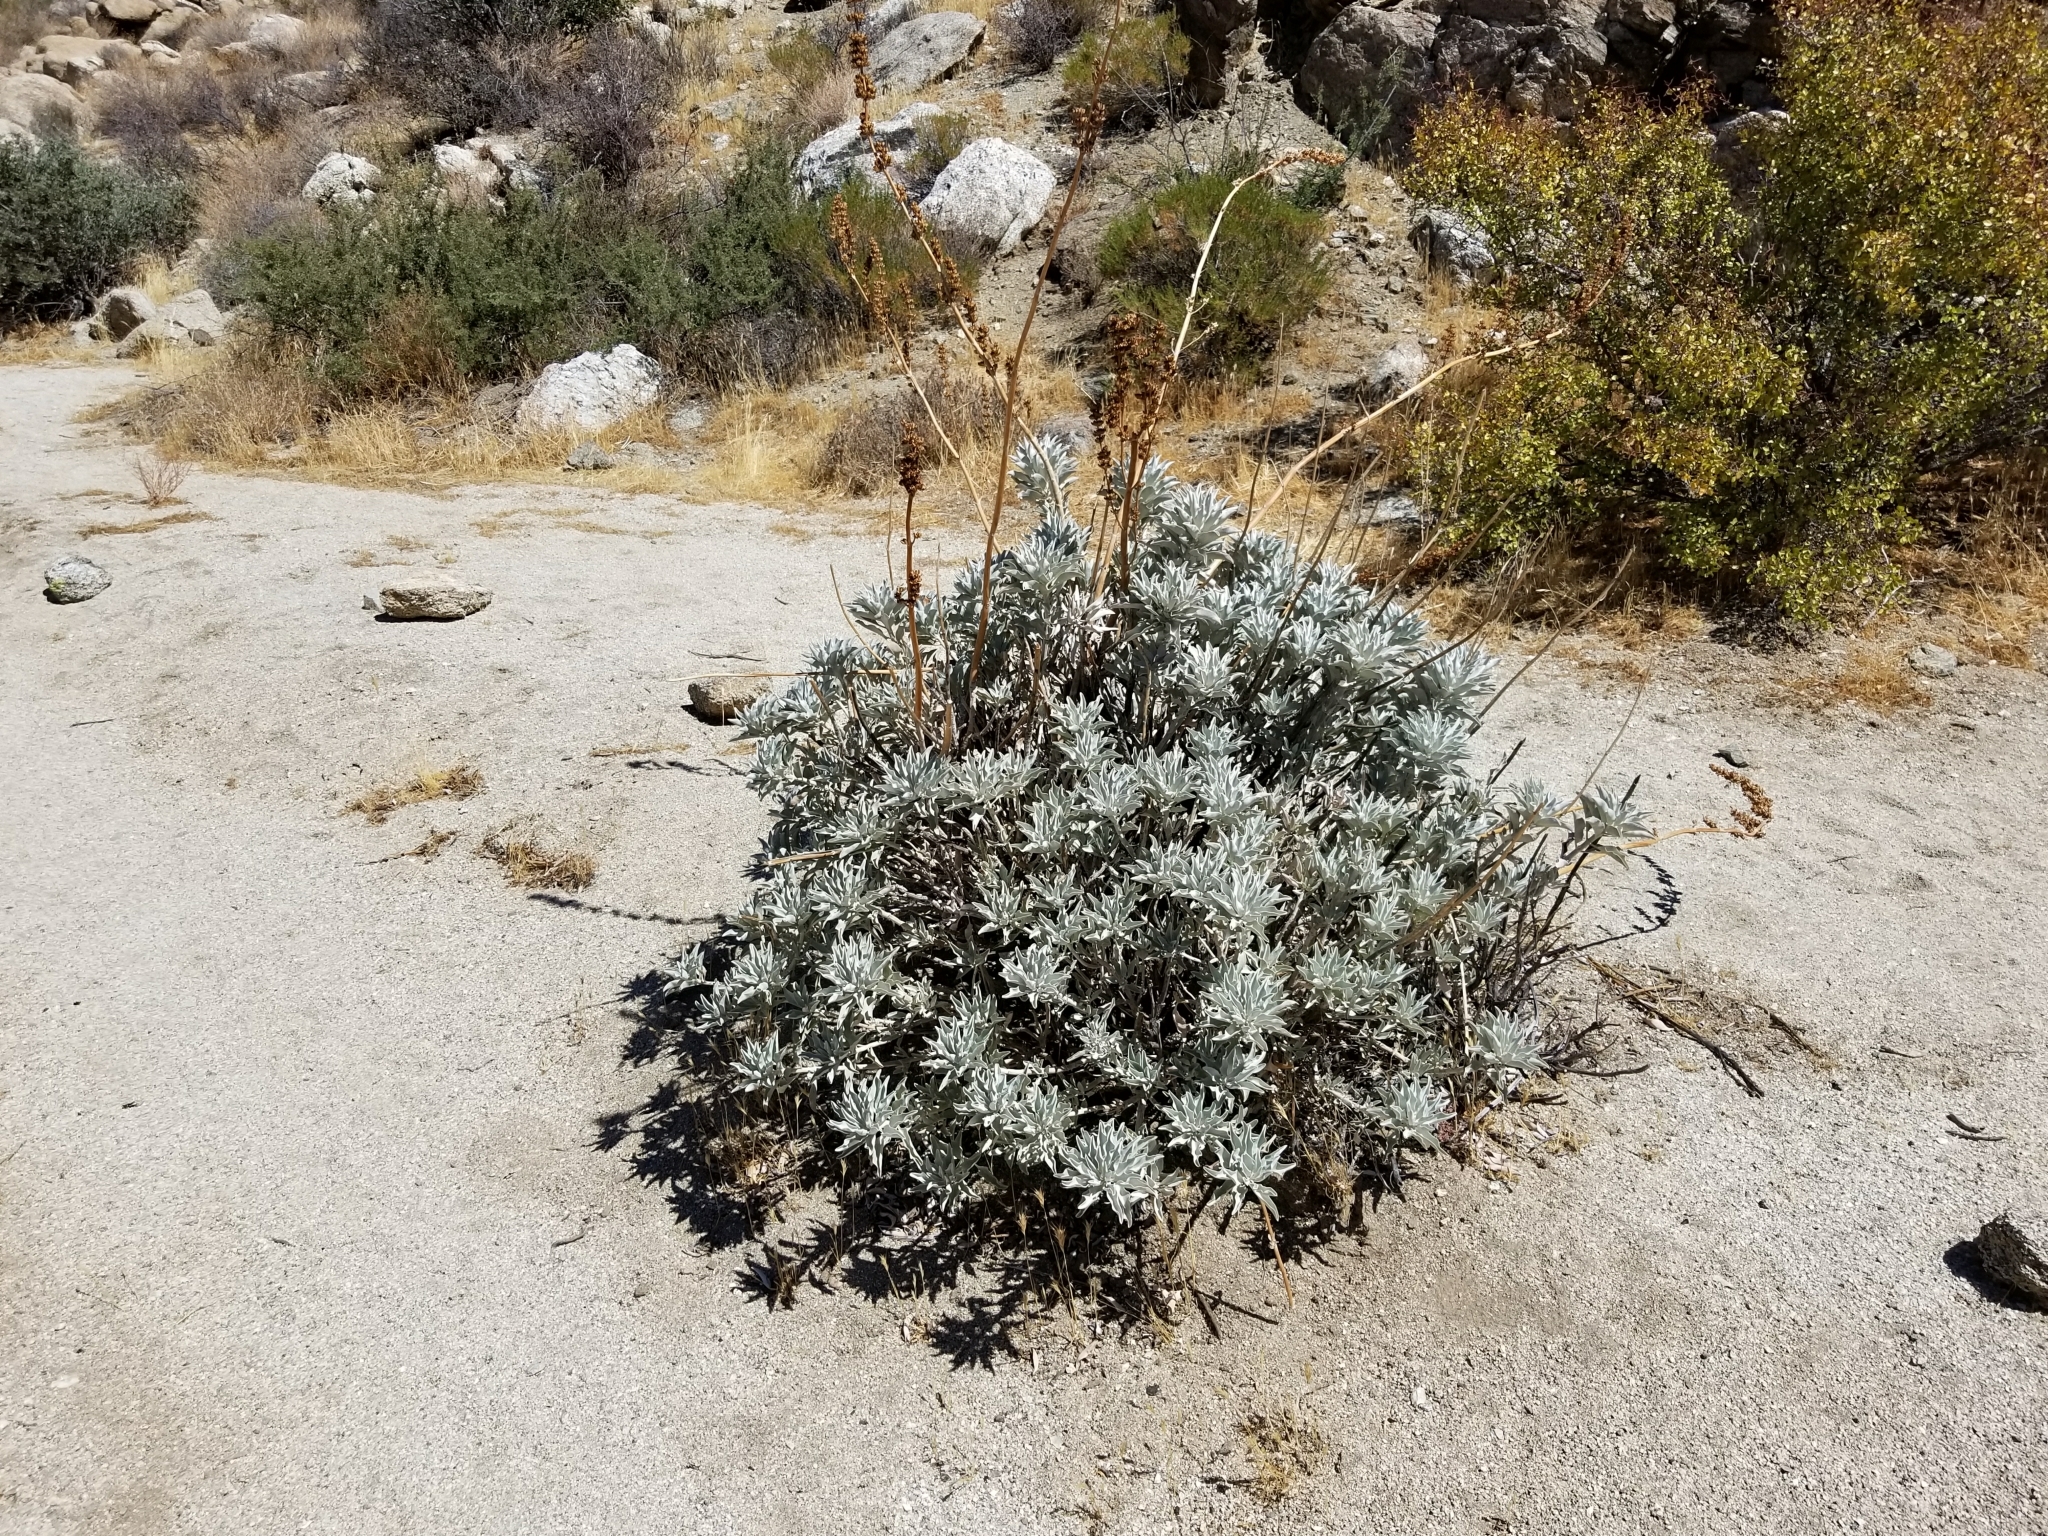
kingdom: Plantae
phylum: Tracheophyta
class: Magnoliopsida
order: Lamiales
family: Lamiaceae
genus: Salvia
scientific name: Salvia apiana
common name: White sage
